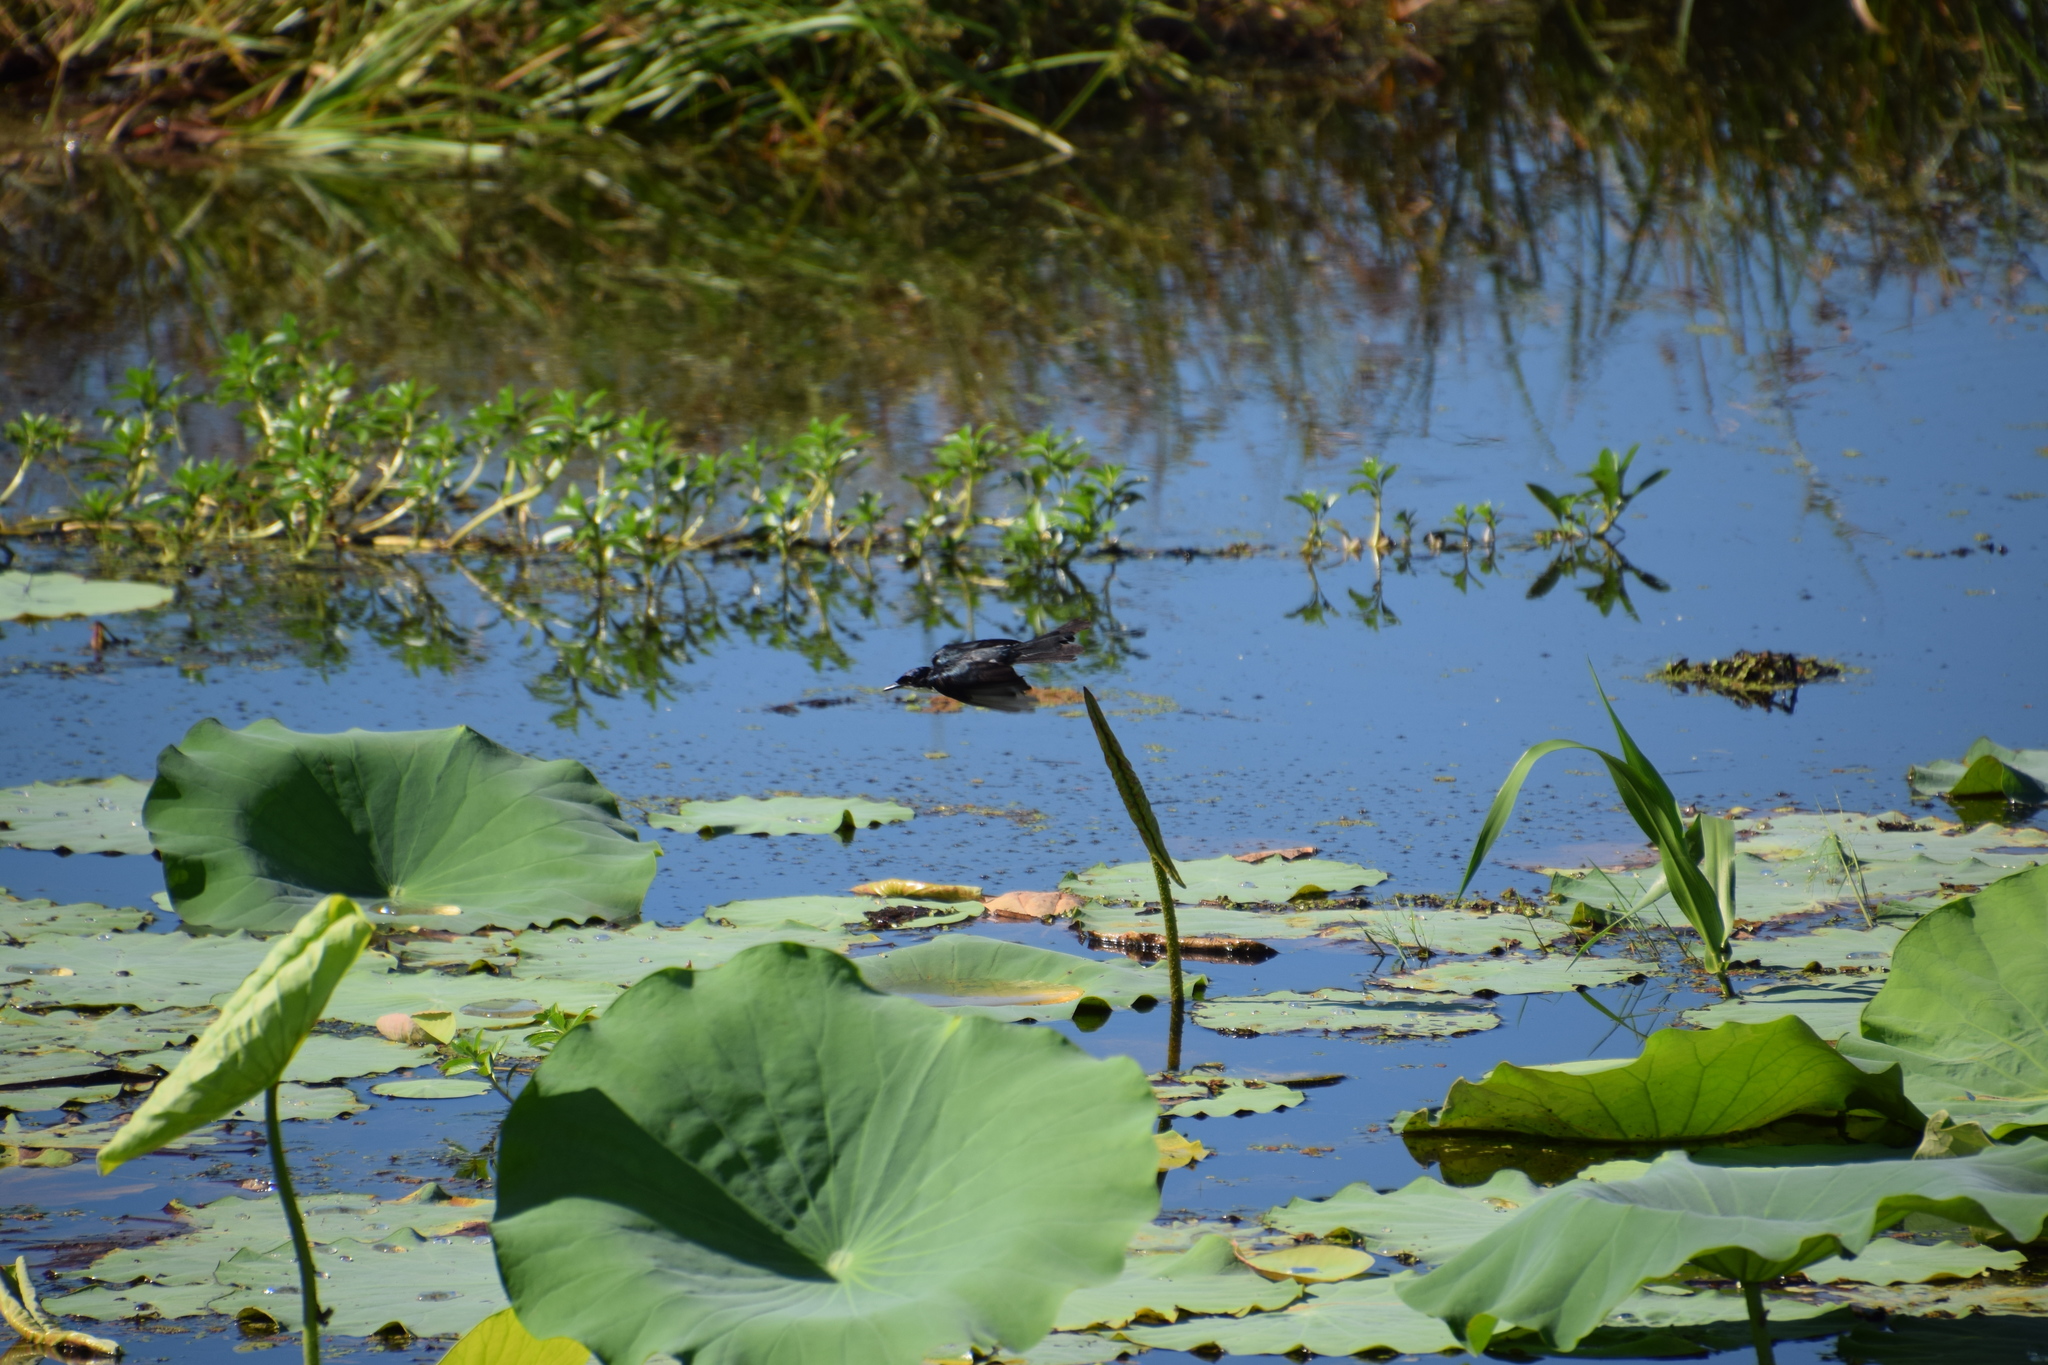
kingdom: Animalia
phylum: Chordata
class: Aves
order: Passeriformes
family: Monarchidae
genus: Myiagra
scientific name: Myiagra nana
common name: Paperbark flycatcher
